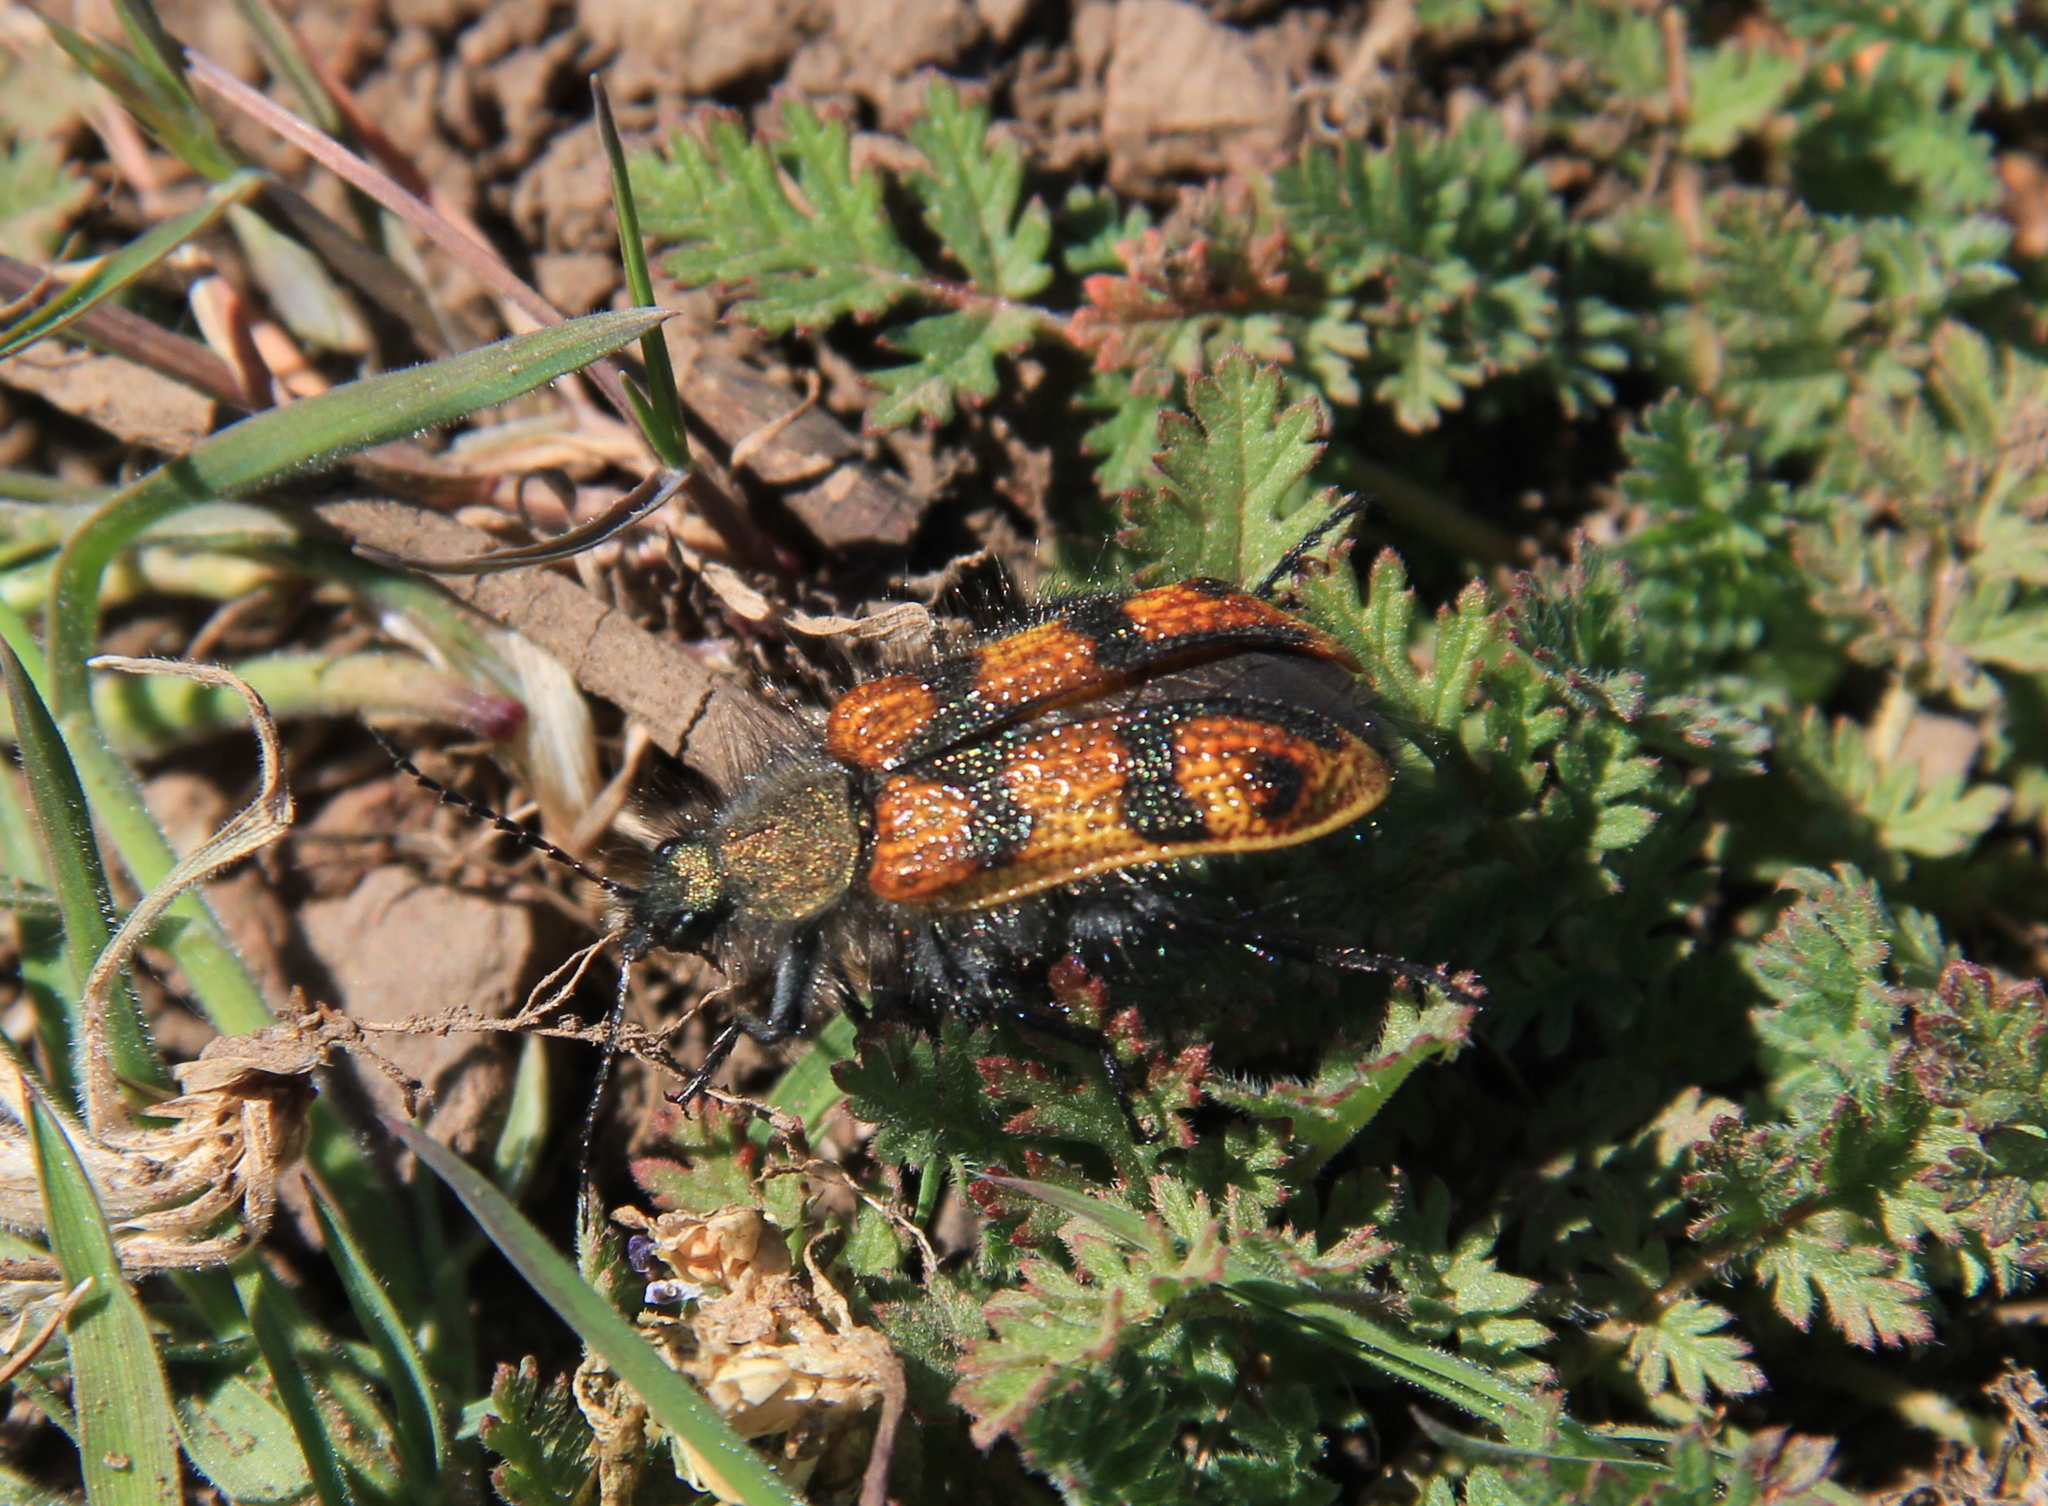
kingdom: Animalia
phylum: Arthropoda
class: Insecta
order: Coleoptera
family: Melyridae
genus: Astylus
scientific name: Astylus
